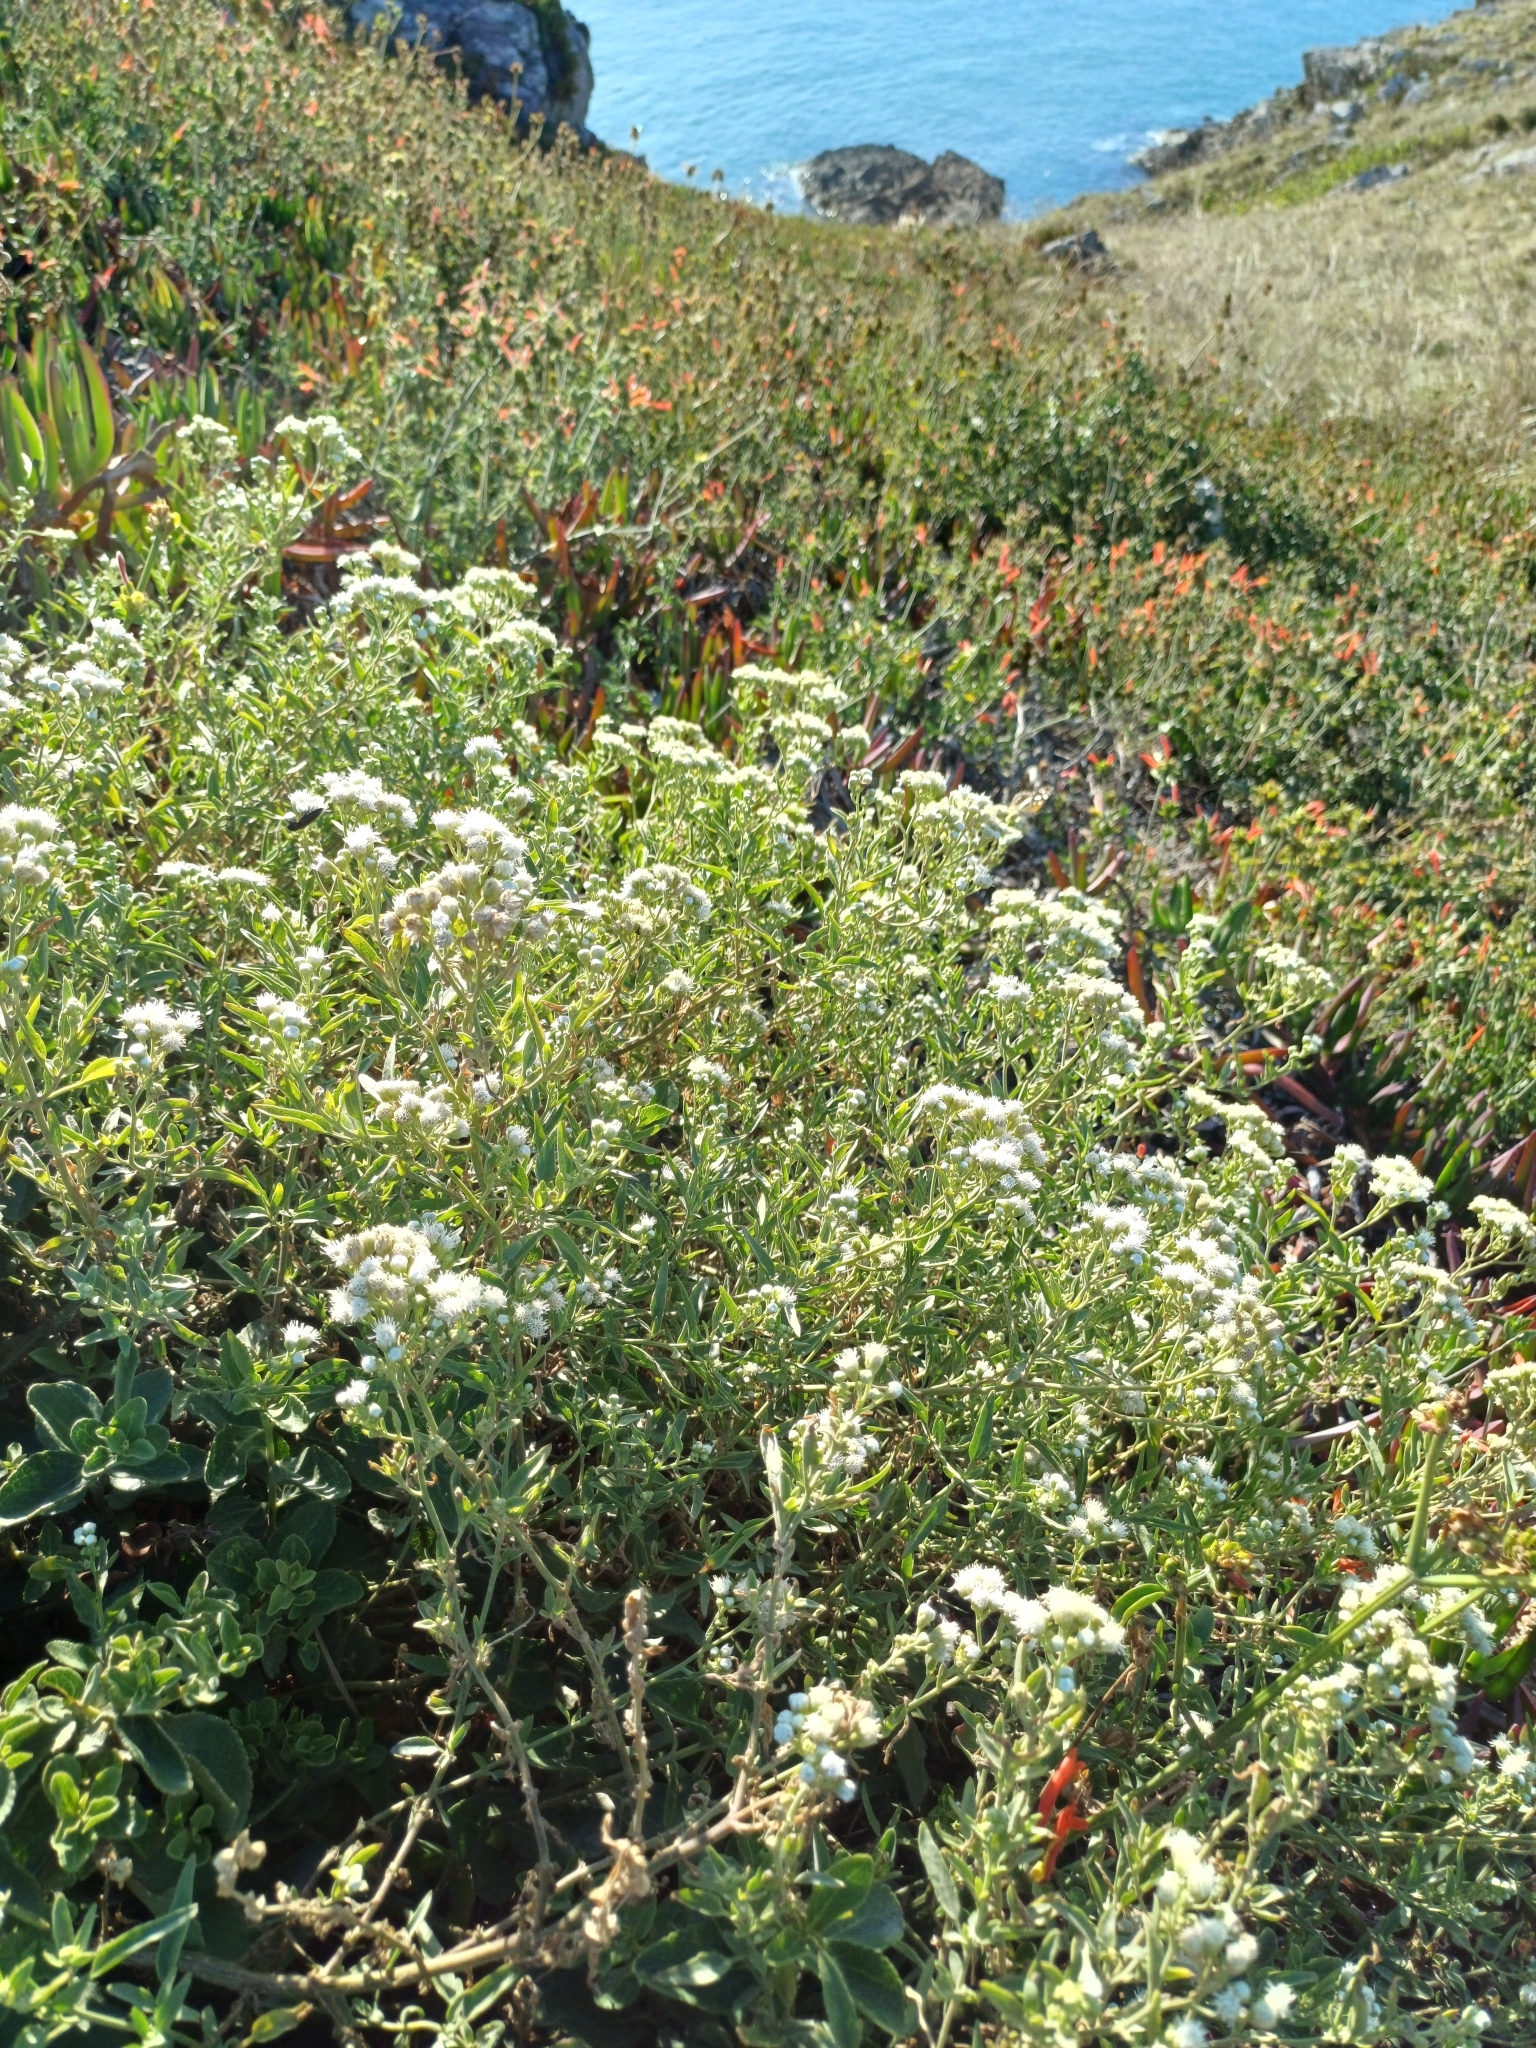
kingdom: Plantae
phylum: Tracheophyta
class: Magnoliopsida
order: Asterales
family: Asteraceae
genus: Hatschbachiella
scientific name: Hatschbachiella tweedieana
